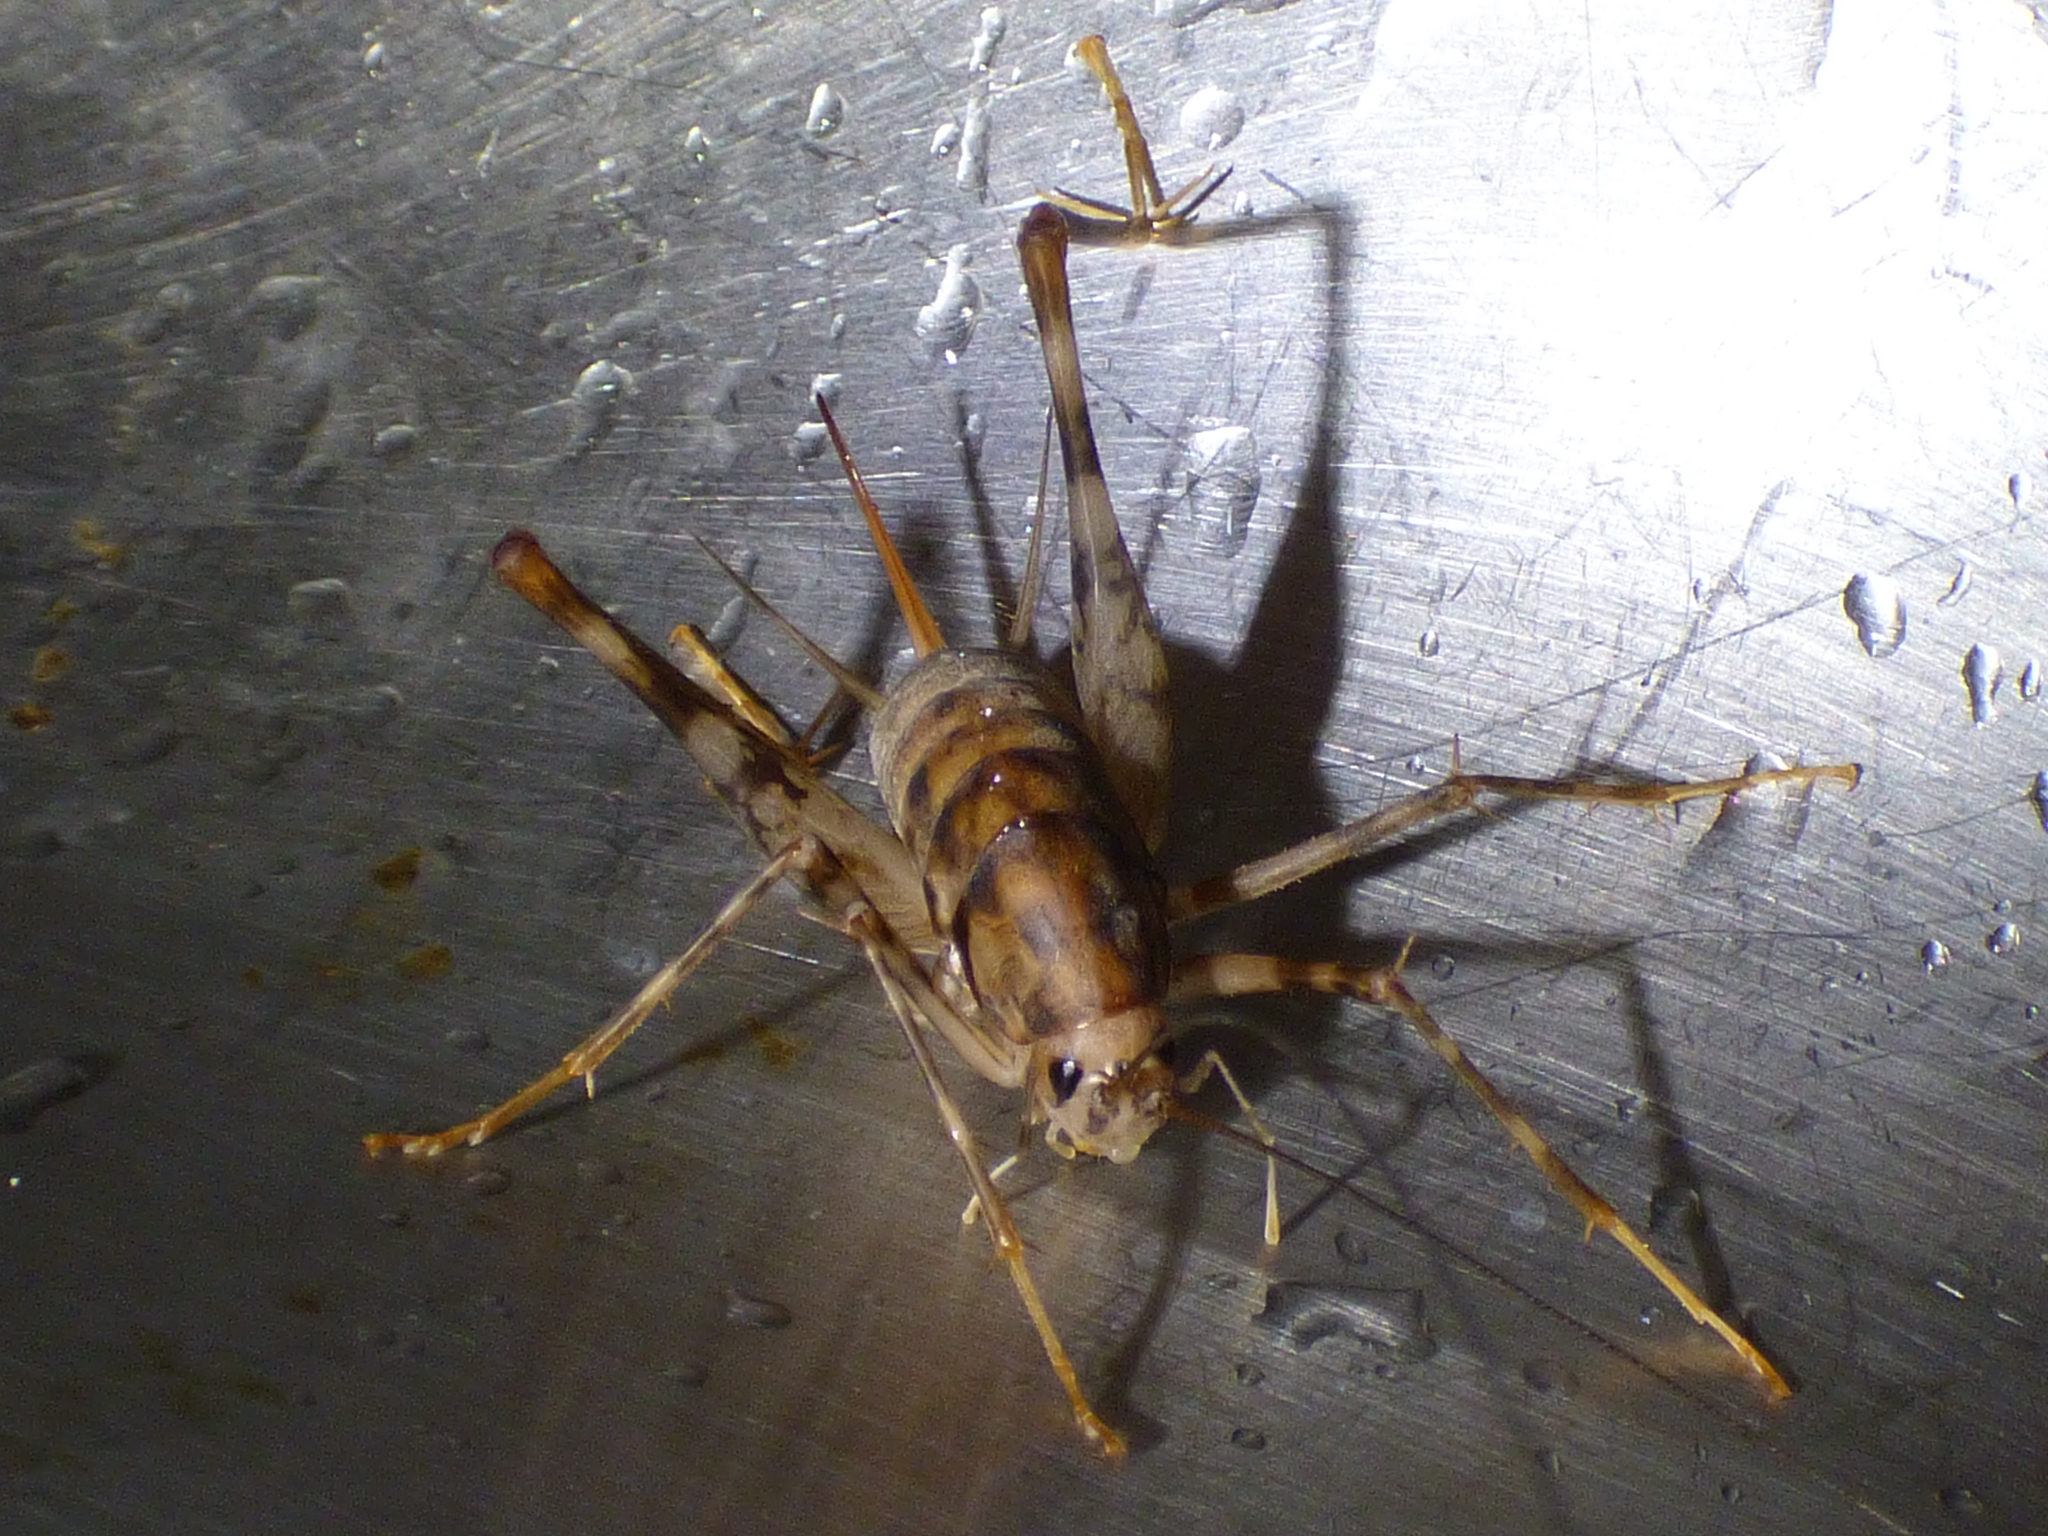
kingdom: Animalia
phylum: Arthropoda
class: Insecta
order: Orthoptera
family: Rhaphidophoridae
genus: Tachycines
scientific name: Tachycines asynamorus
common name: Greenhouse camel cricket
